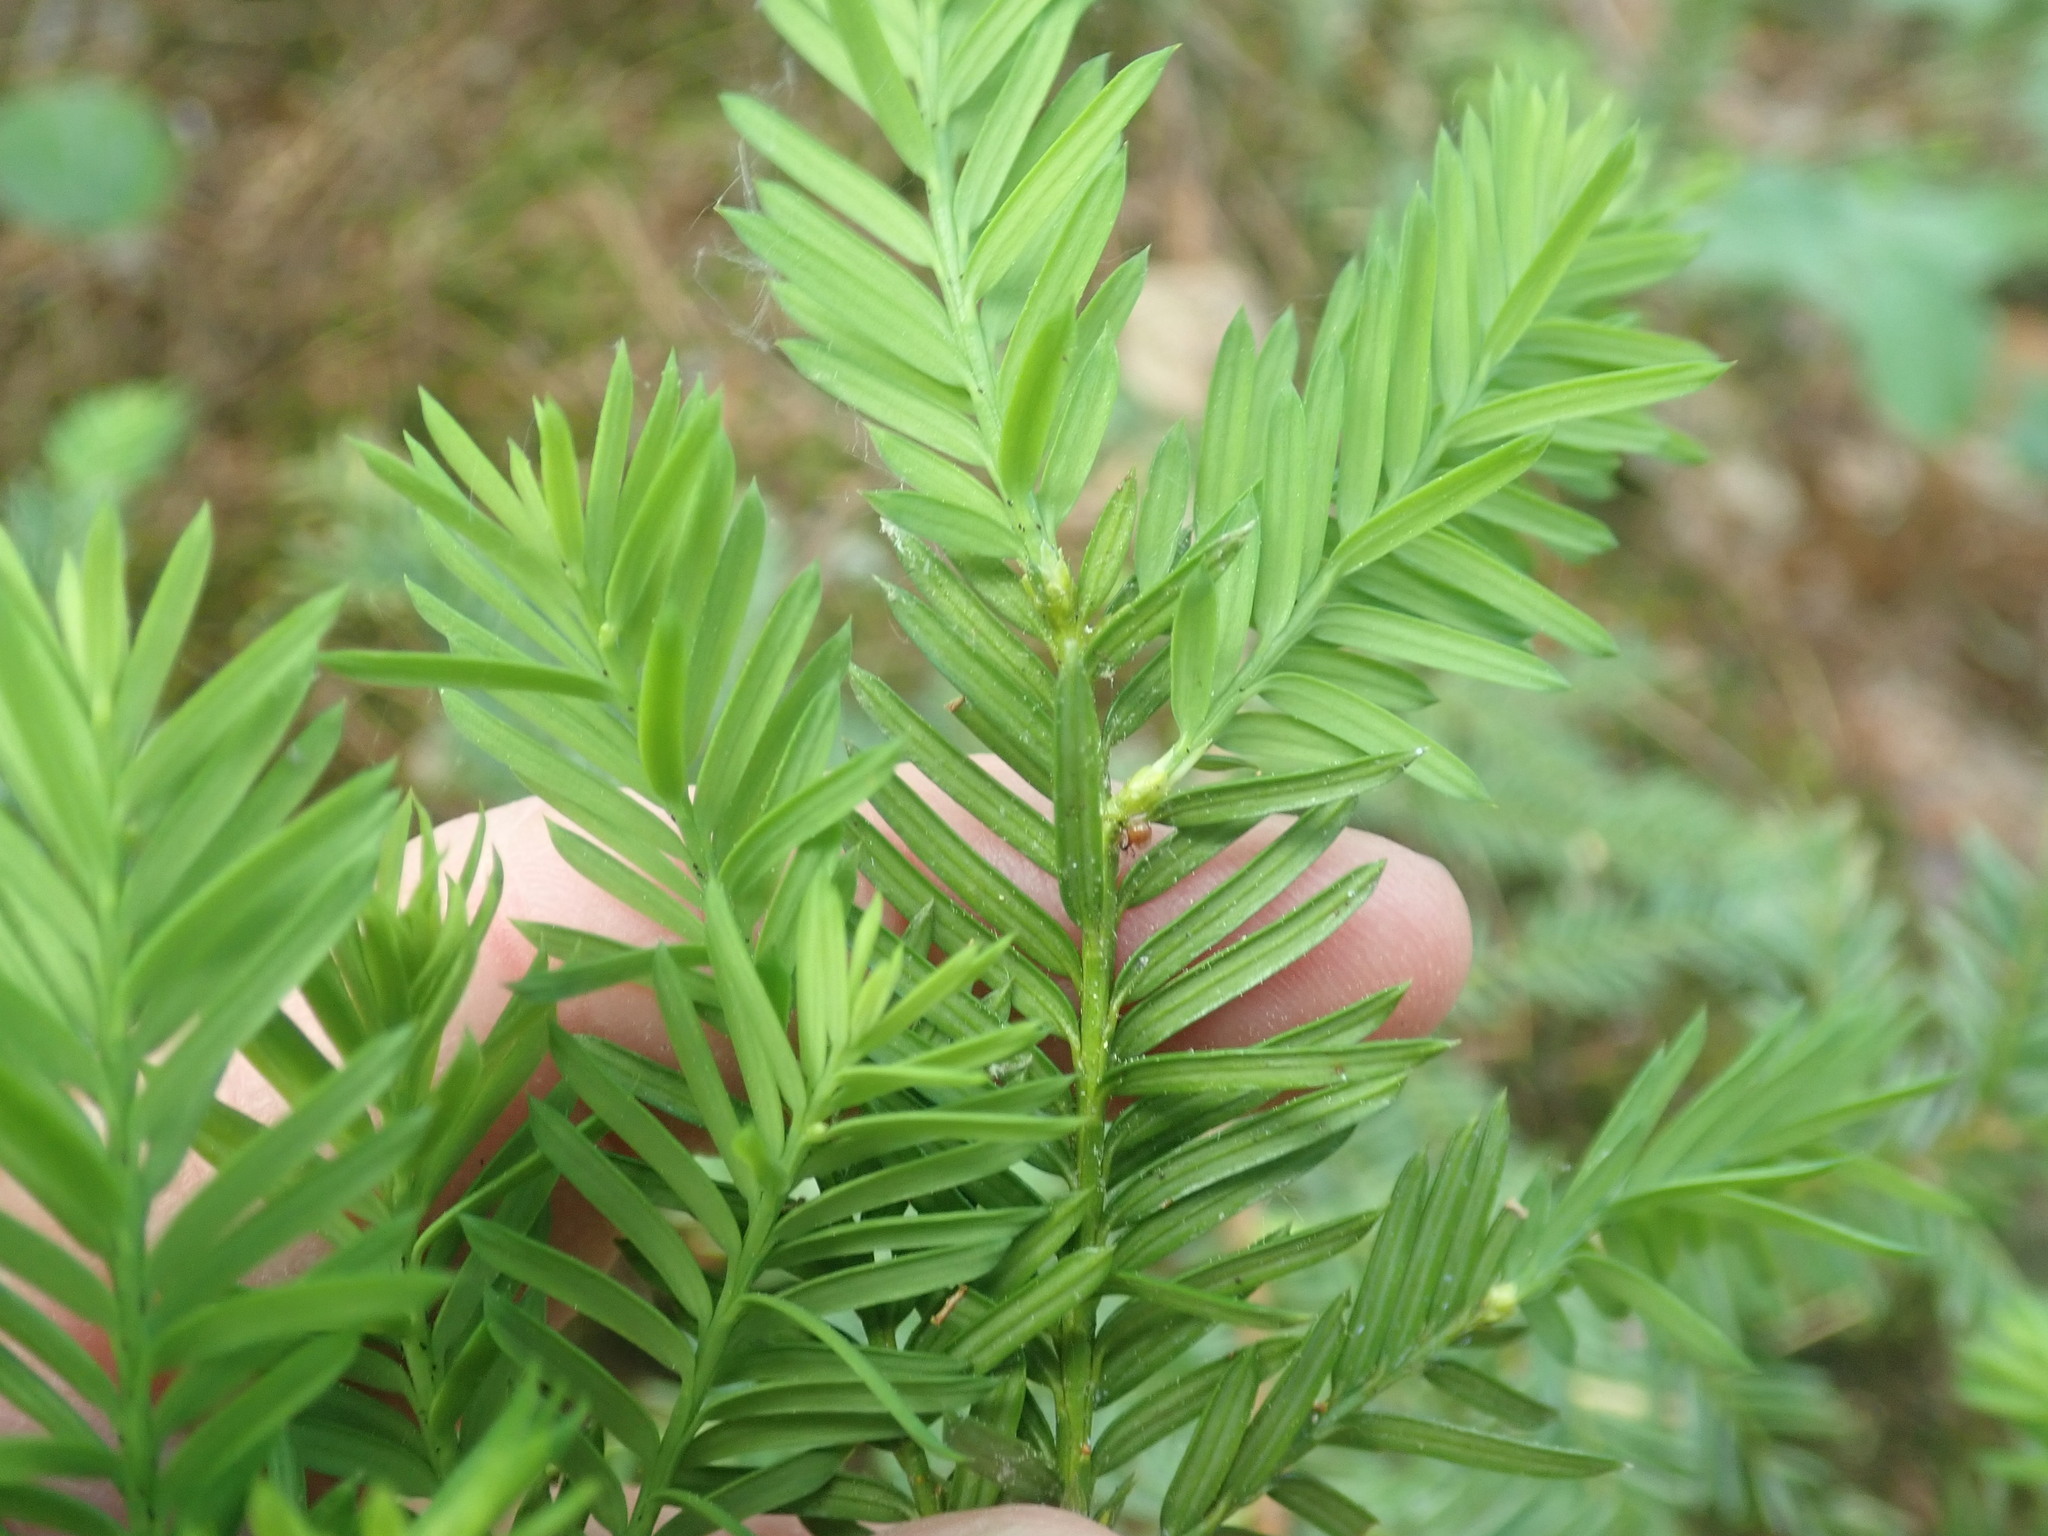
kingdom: Plantae
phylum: Tracheophyta
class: Pinopsida
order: Pinales
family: Taxaceae
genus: Taxus
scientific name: Taxus canadensis
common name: American yew
